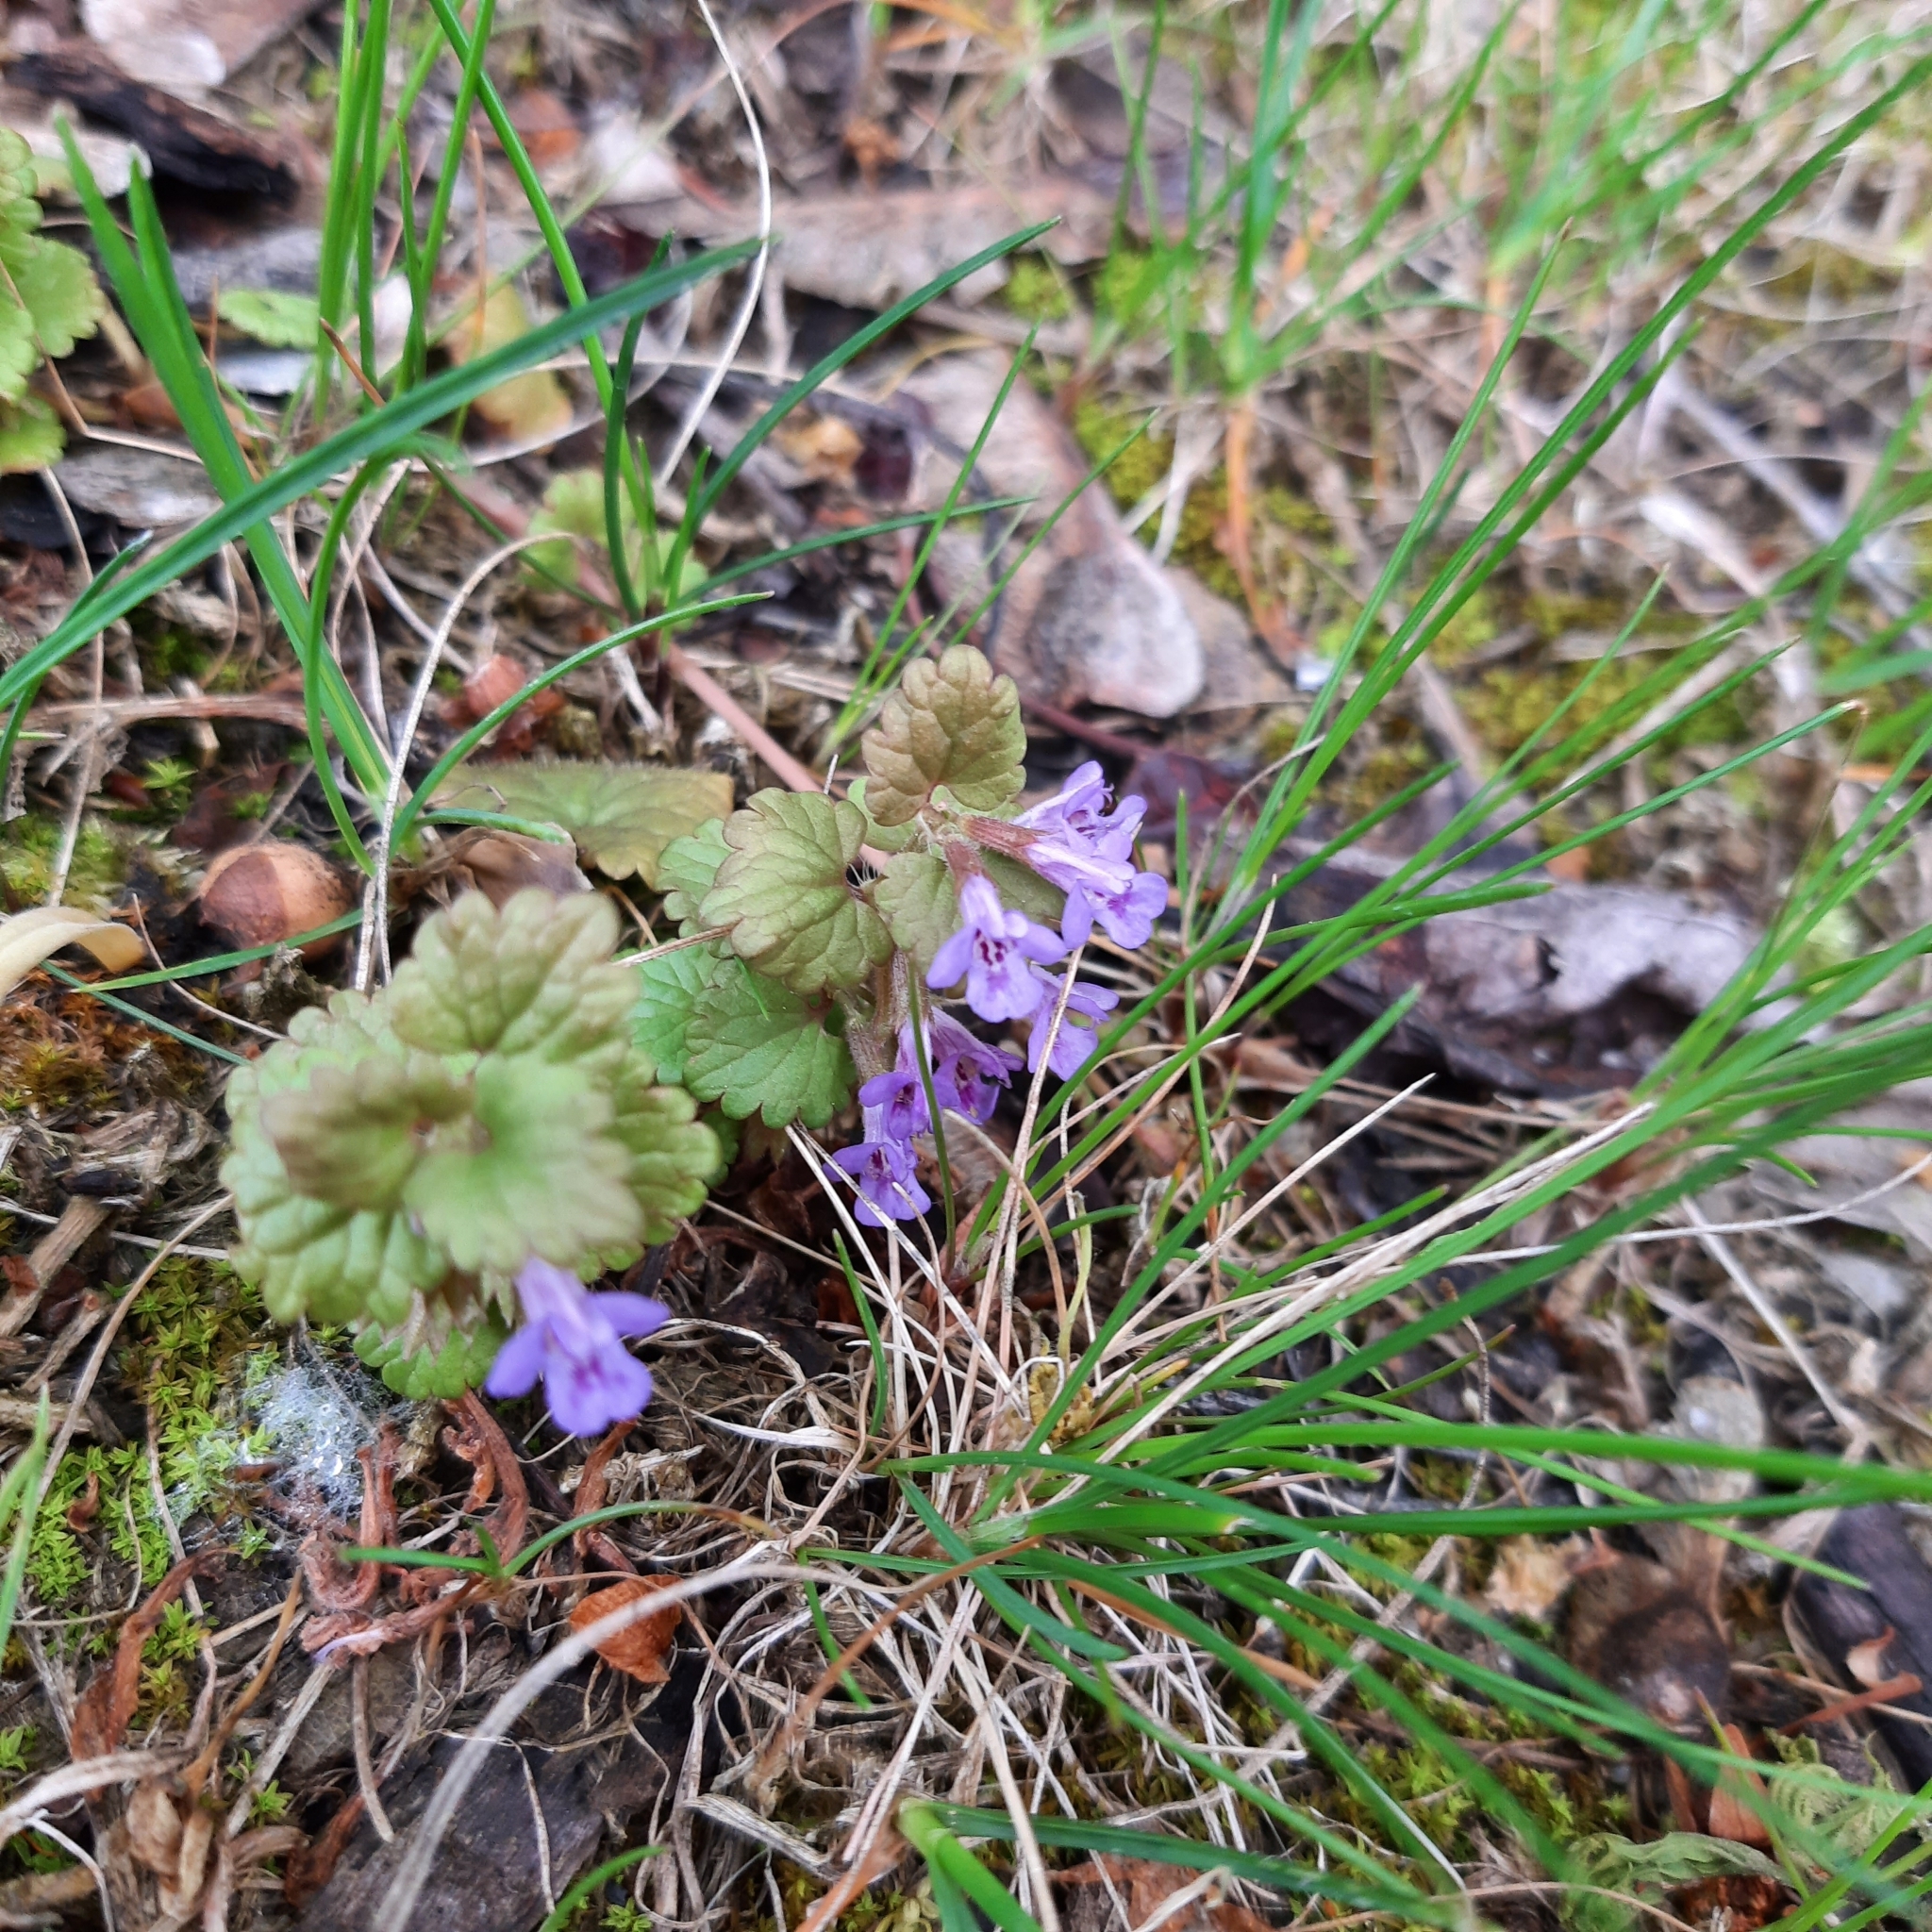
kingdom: Plantae
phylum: Tracheophyta
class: Magnoliopsida
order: Lamiales
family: Lamiaceae
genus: Glechoma
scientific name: Glechoma hederacea
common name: Ground ivy
